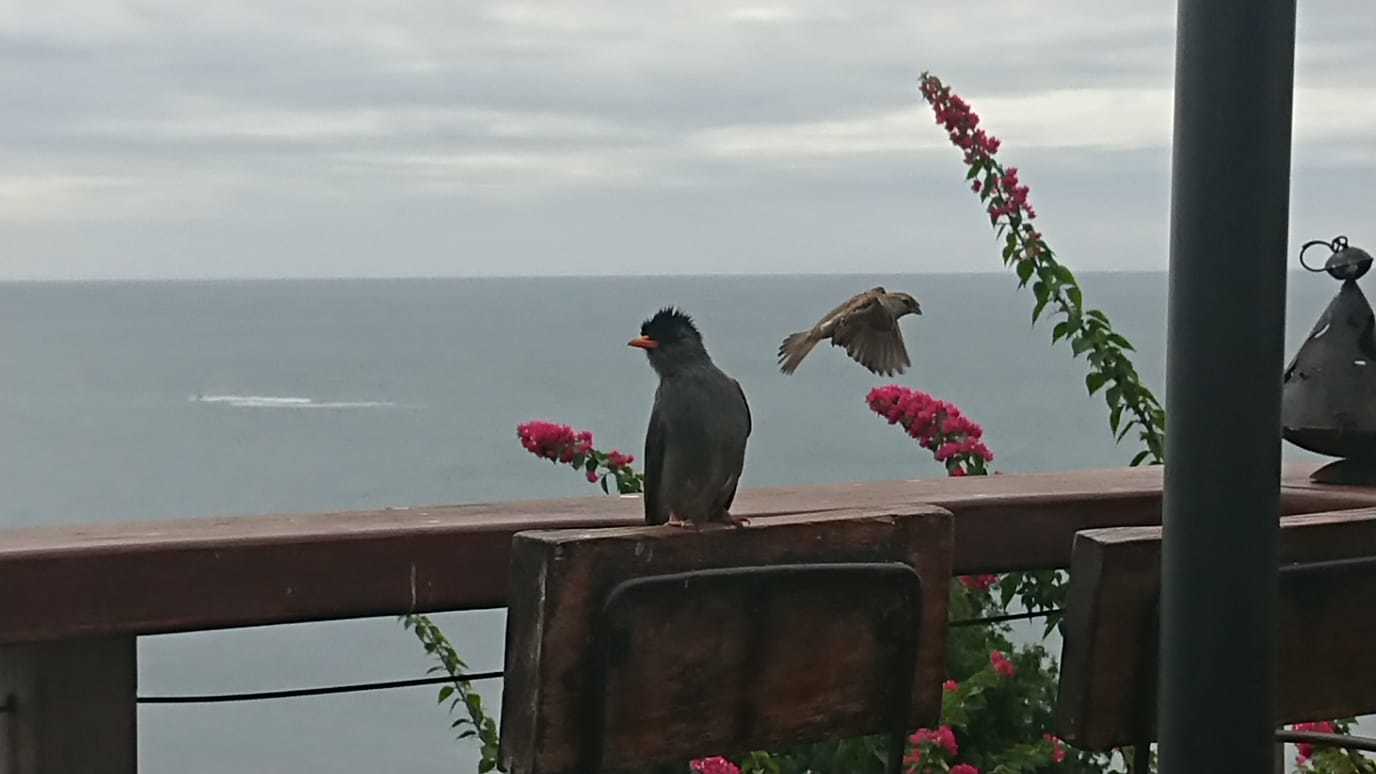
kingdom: Animalia
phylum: Chordata
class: Aves
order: Passeriformes
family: Pycnonotidae
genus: Hypsipetes
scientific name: Hypsipetes madagascariensis
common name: Malagasy bulbul
